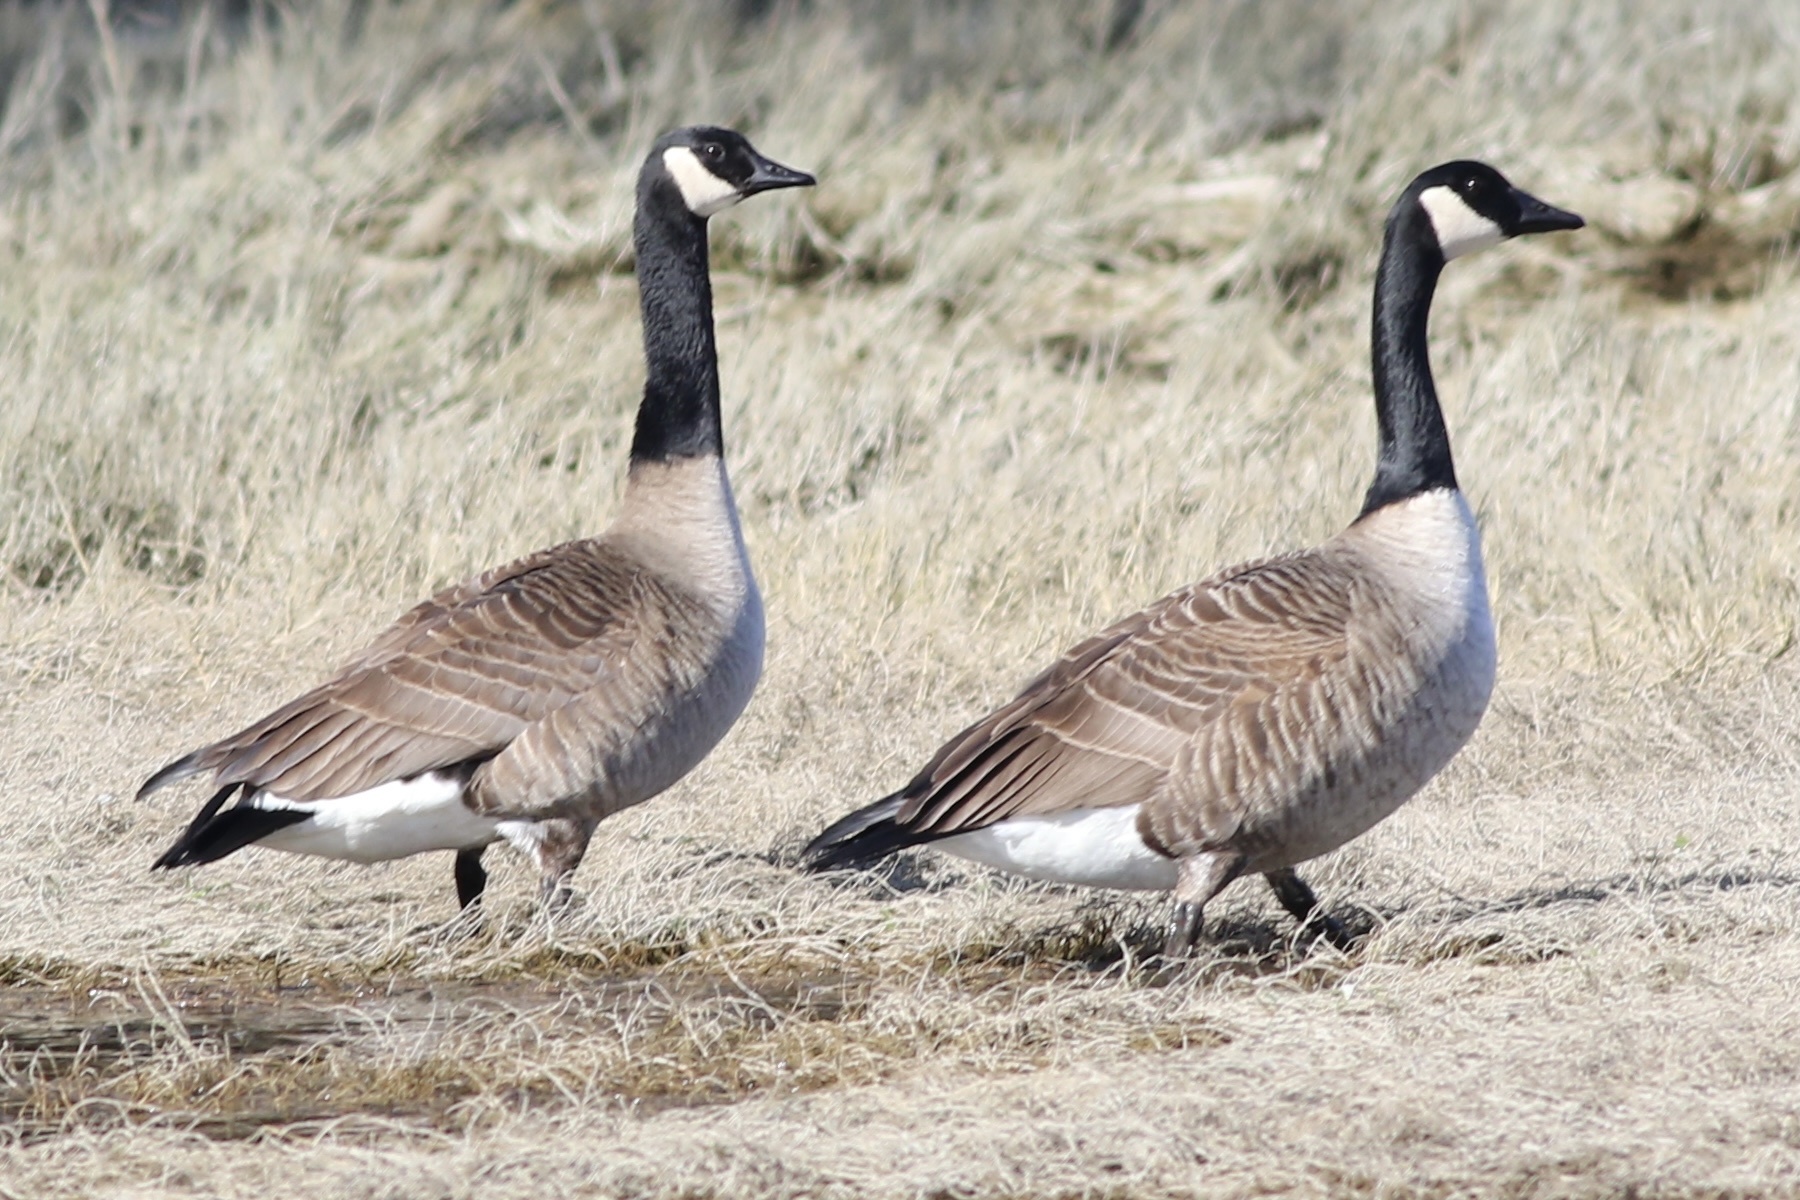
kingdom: Animalia
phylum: Chordata
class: Aves
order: Anseriformes
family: Anatidae
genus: Branta
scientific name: Branta canadensis
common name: Canada goose
